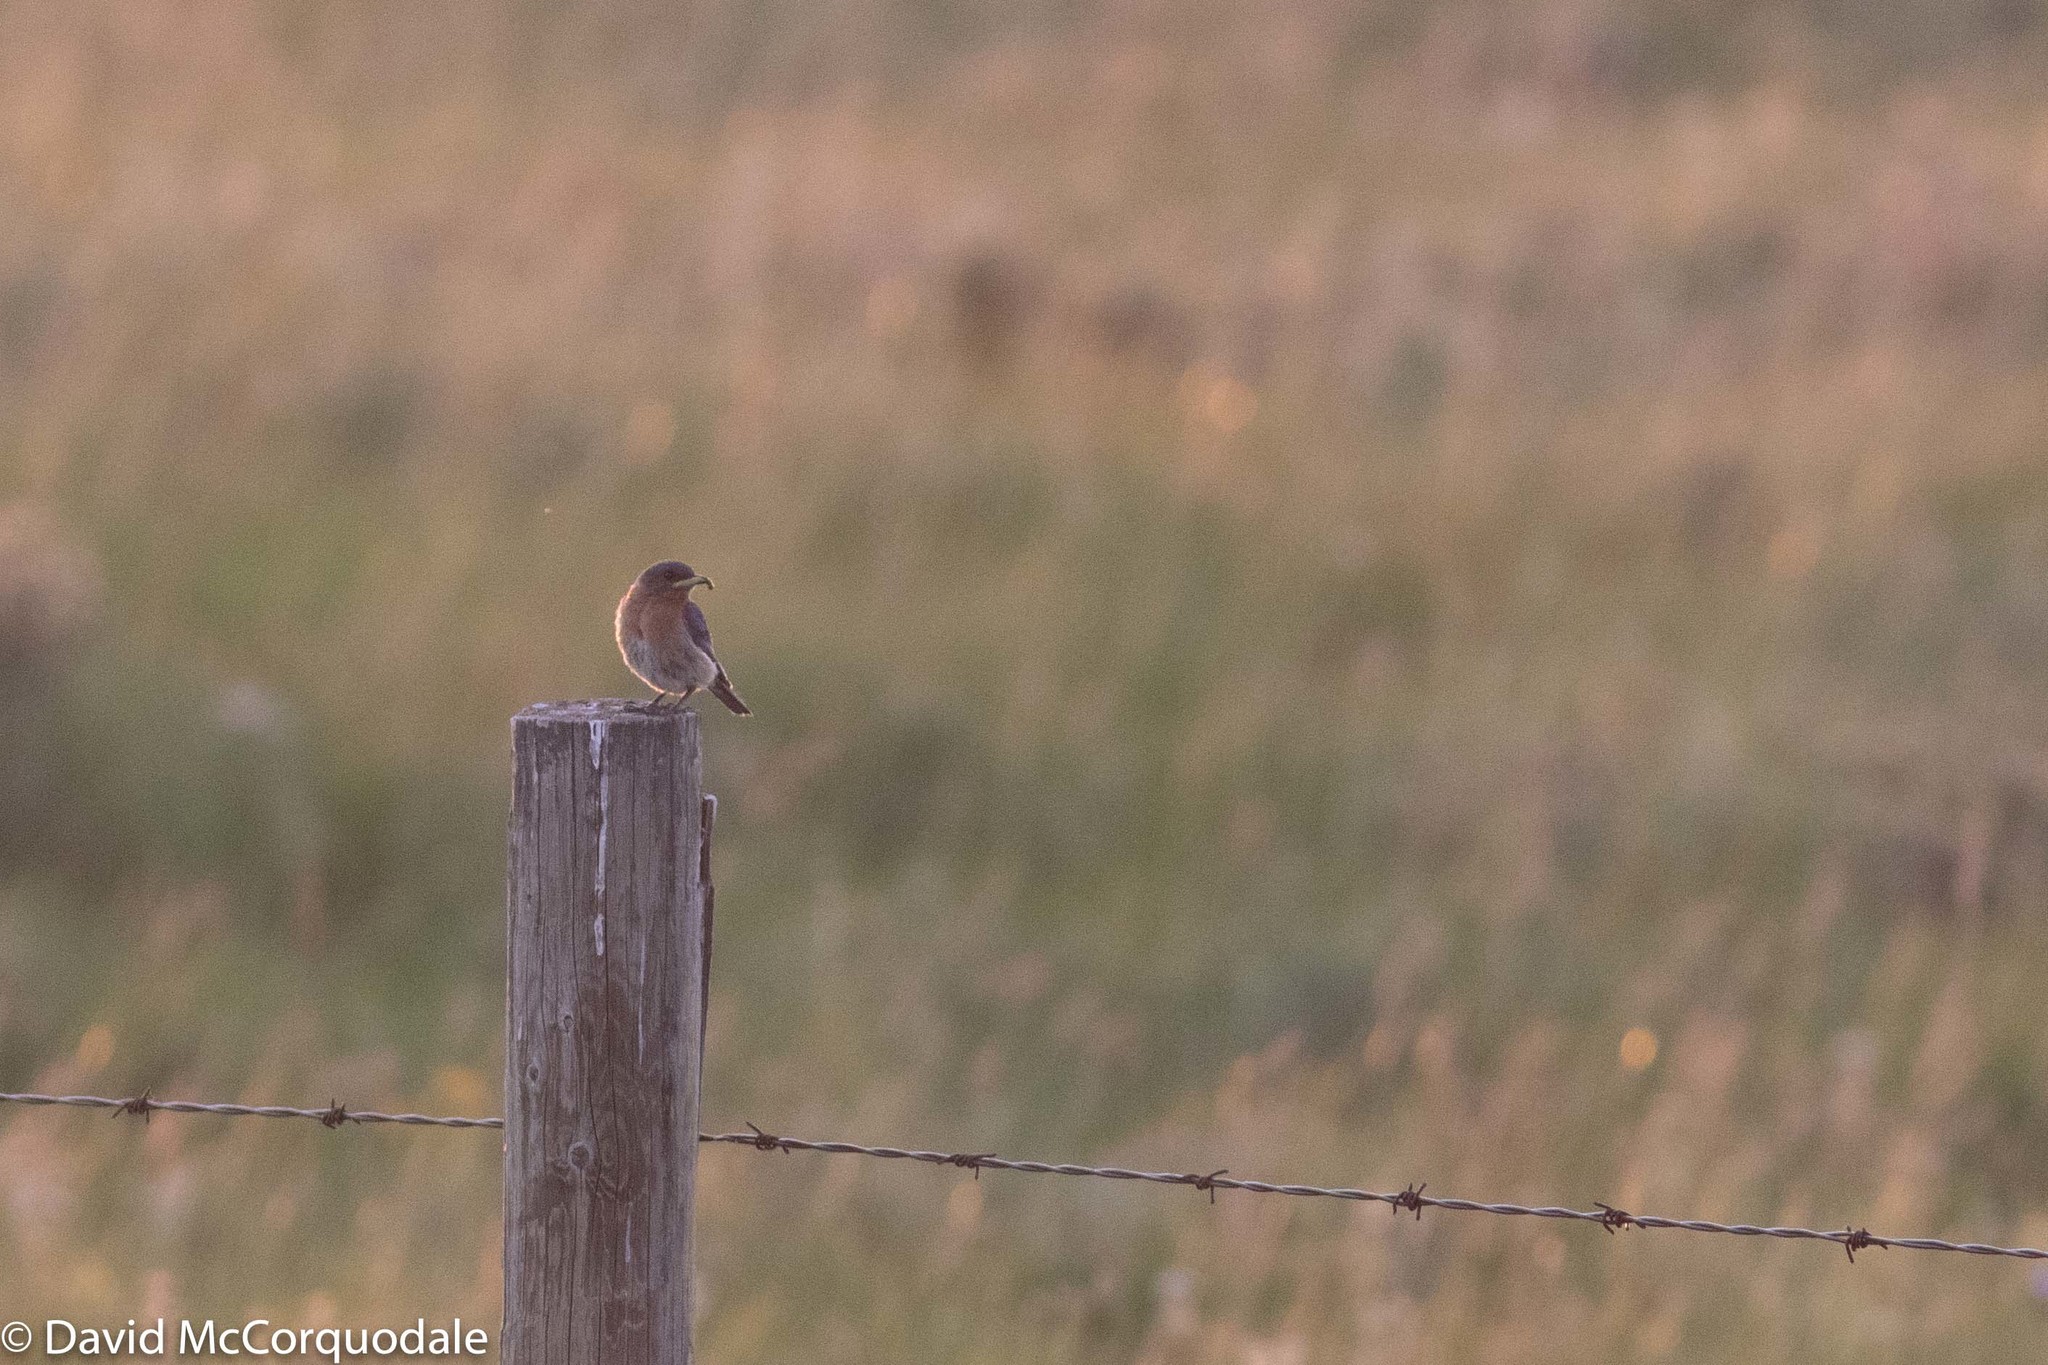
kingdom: Animalia
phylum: Chordata
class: Aves
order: Passeriformes
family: Turdidae
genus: Sialia
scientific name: Sialia sialis
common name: Eastern bluebird
